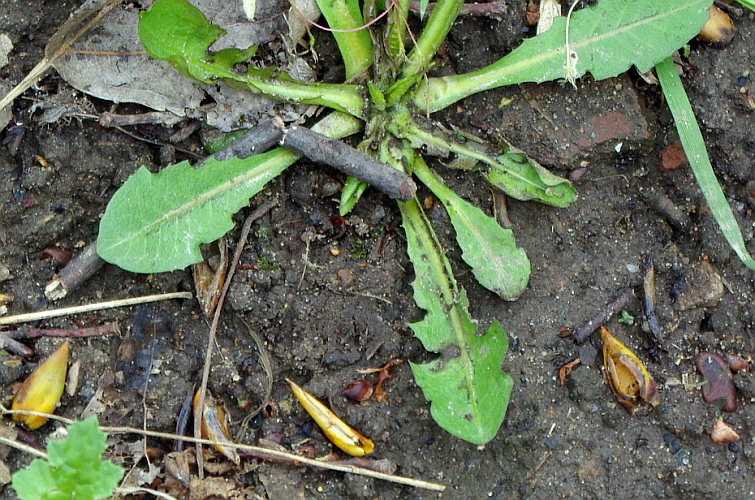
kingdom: Plantae
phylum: Tracheophyta
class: Magnoliopsida
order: Asterales
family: Asteraceae
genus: Taraxacum
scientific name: Taraxacum officinale
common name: Common dandelion
